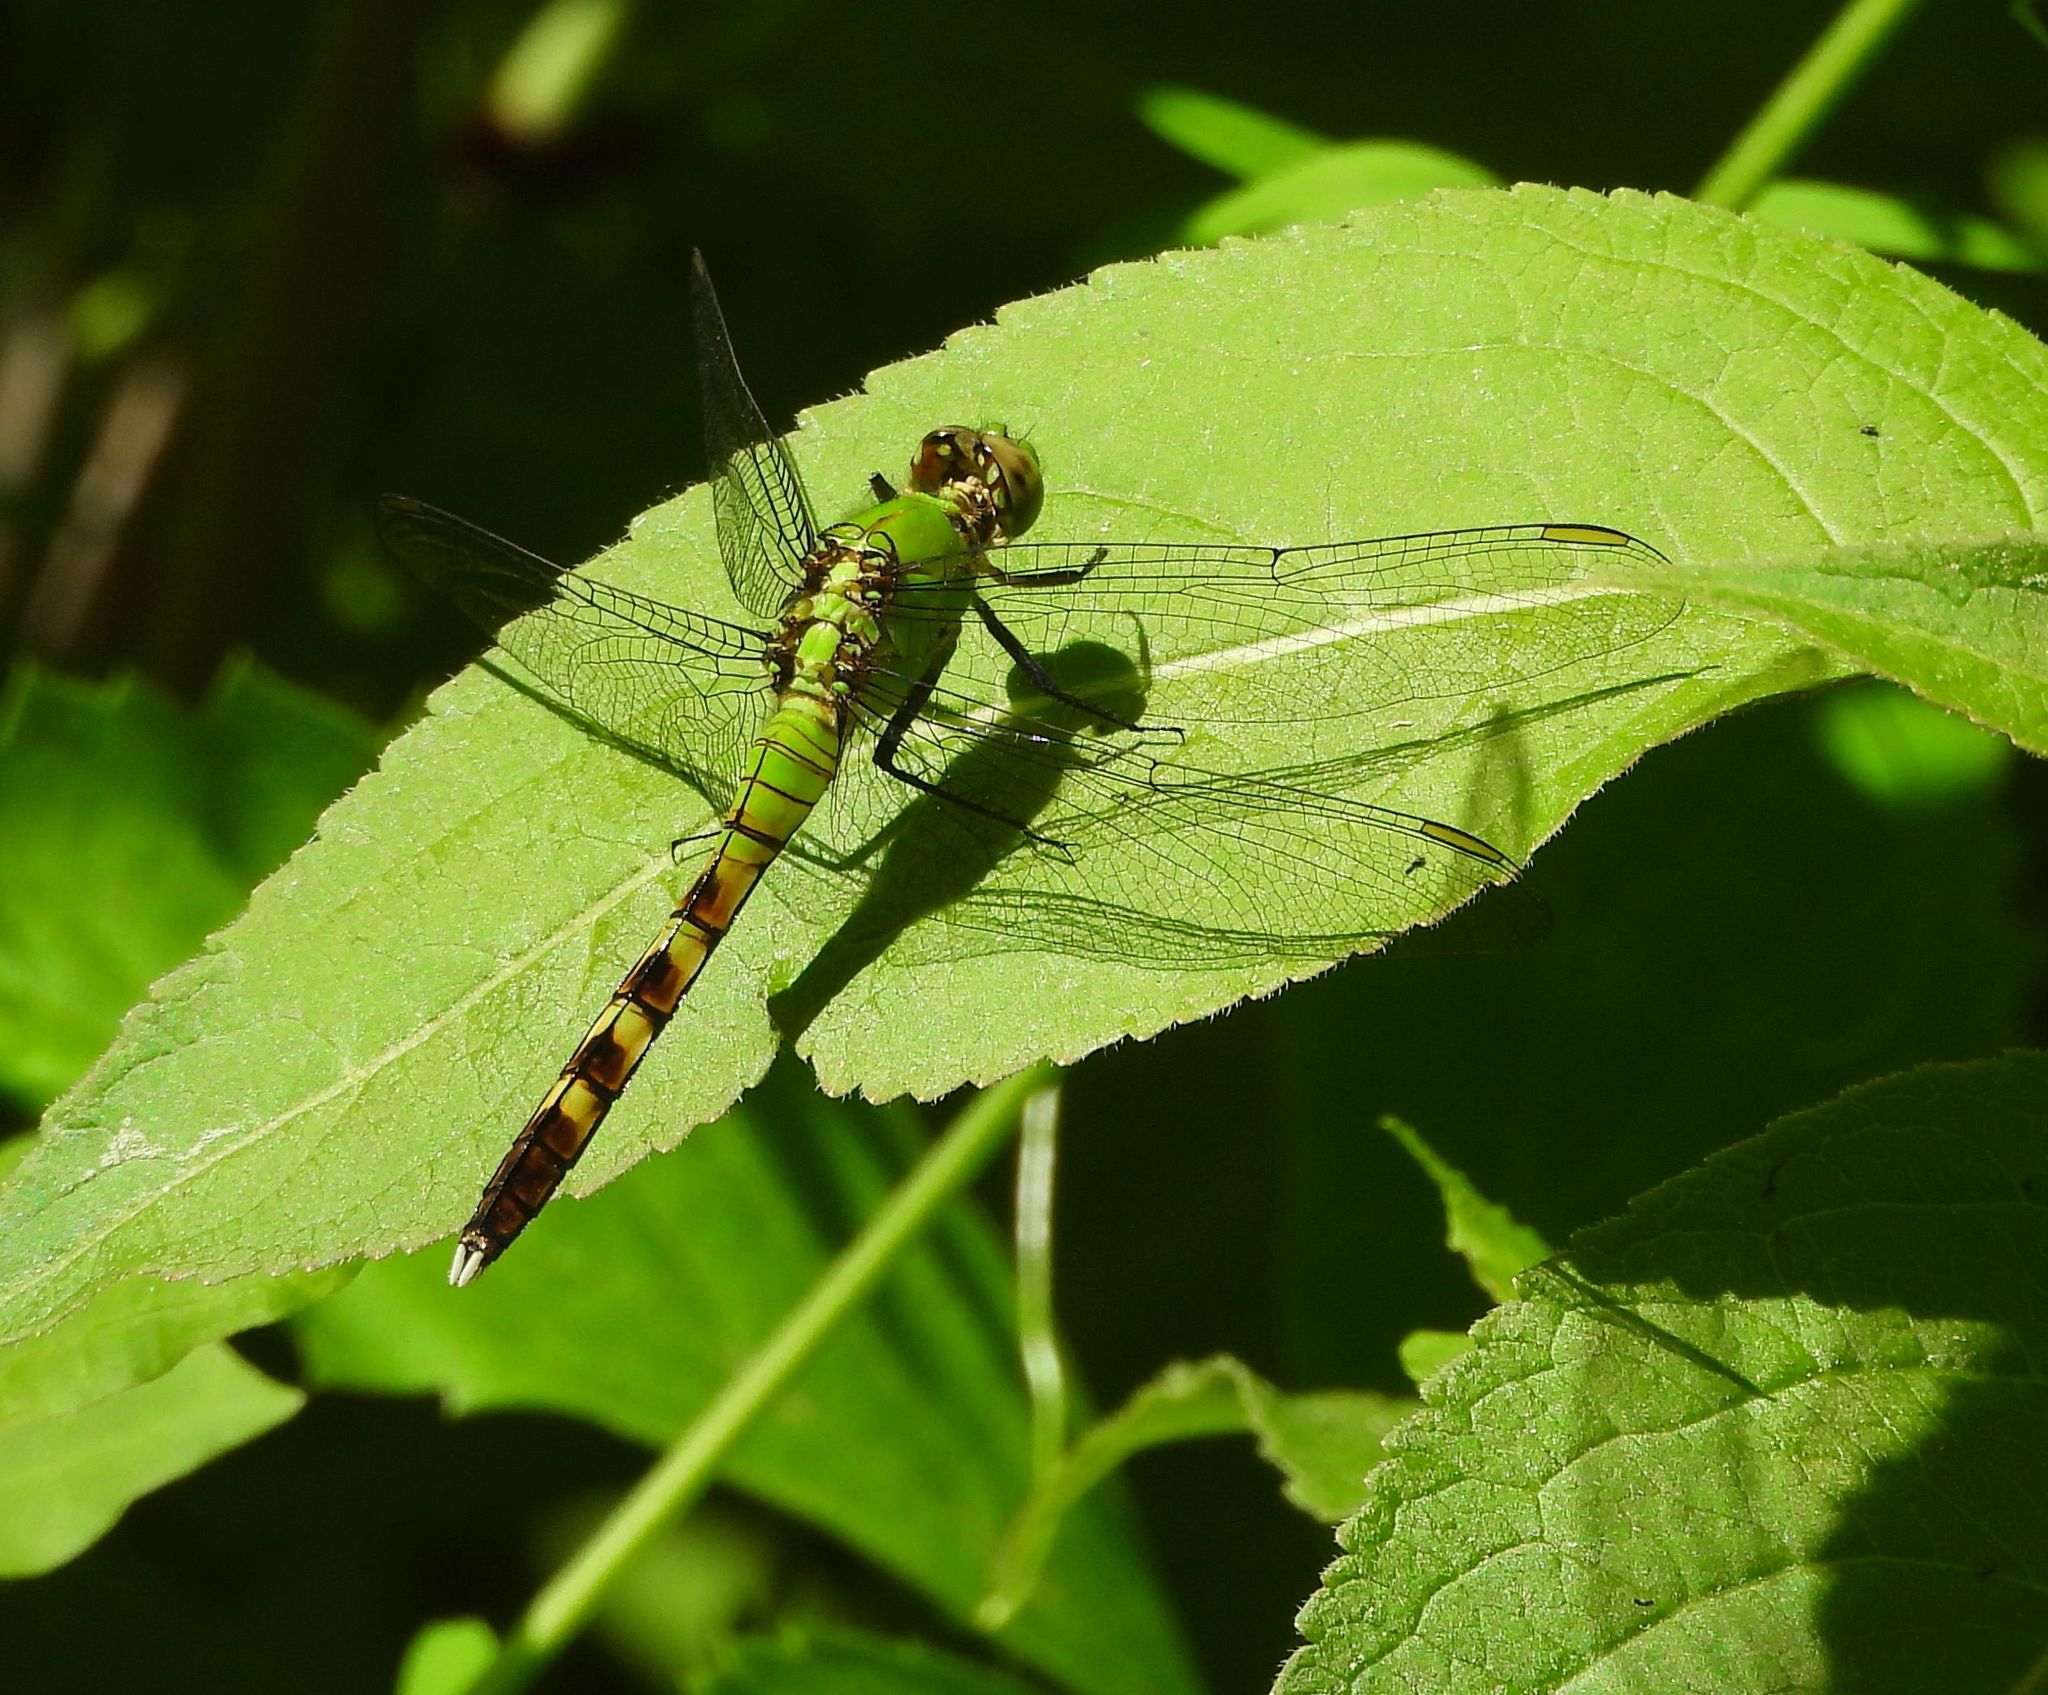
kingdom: Animalia
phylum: Arthropoda
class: Insecta
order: Odonata
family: Libellulidae
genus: Erythemis
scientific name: Erythemis simplicicollis
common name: Eastern pondhawk
